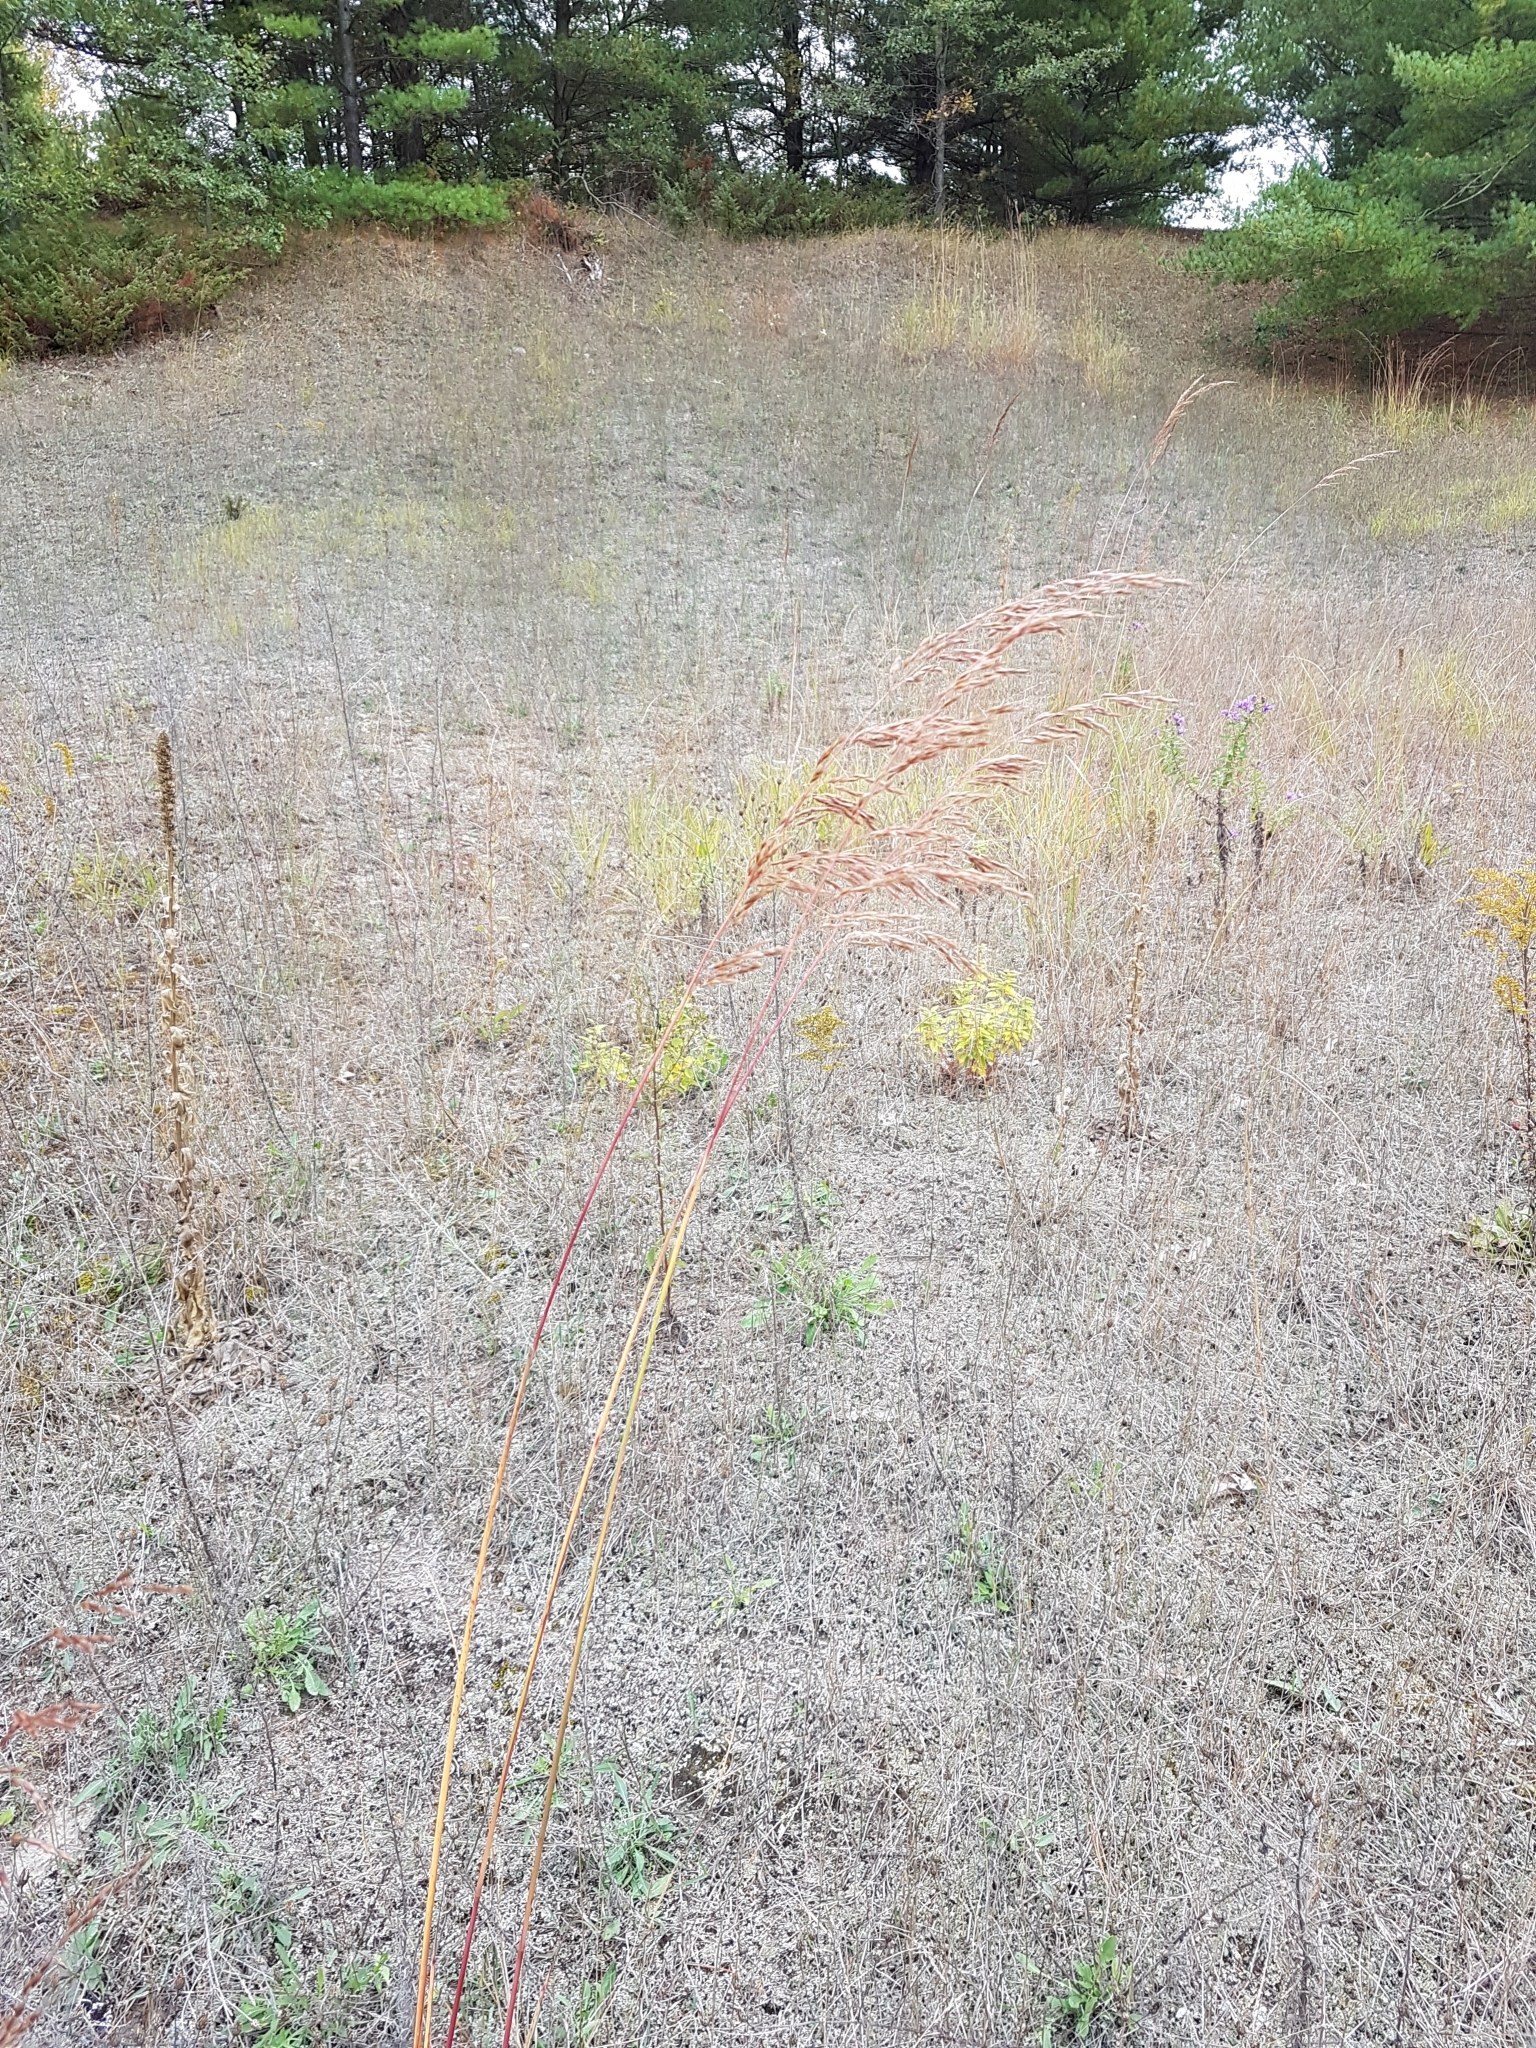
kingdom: Plantae
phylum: Tracheophyta
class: Liliopsida
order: Poales
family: Poaceae
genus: Sorghastrum
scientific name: Sorghastrum nutans
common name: Indian grass
